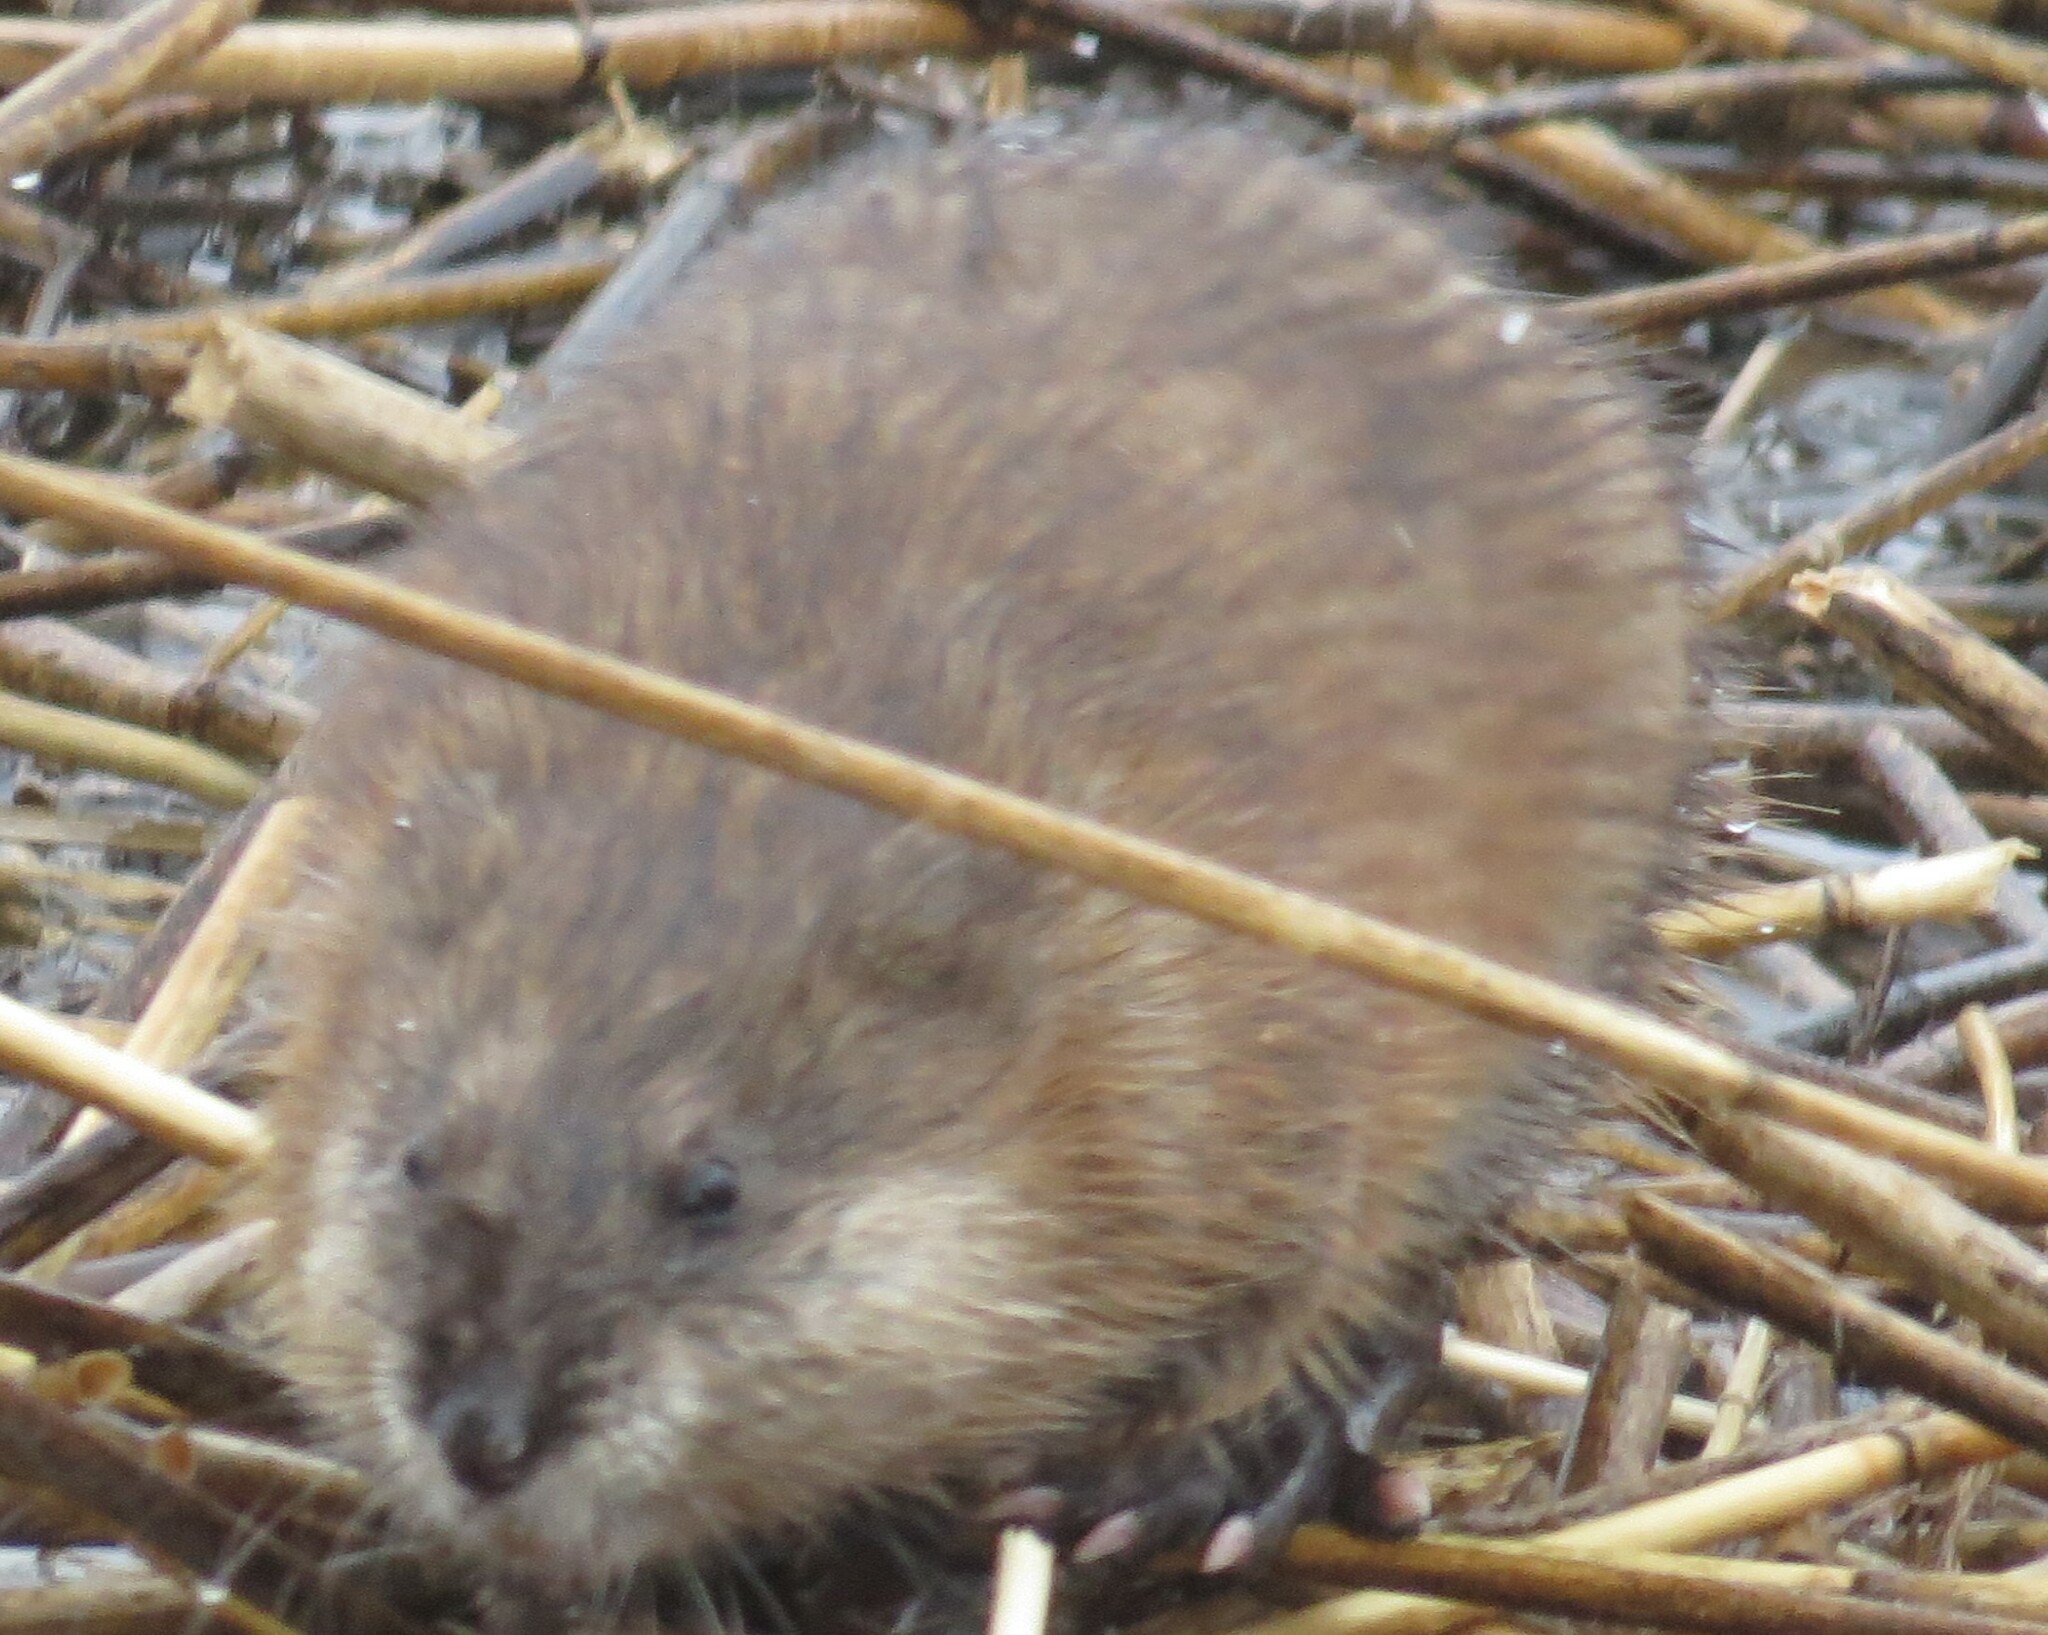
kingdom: Animalia
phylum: Chordata
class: Mammalia
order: Rodentia
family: Cricetidae
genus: Ondatra
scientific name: Ondatra zibethicus
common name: Muskrat
